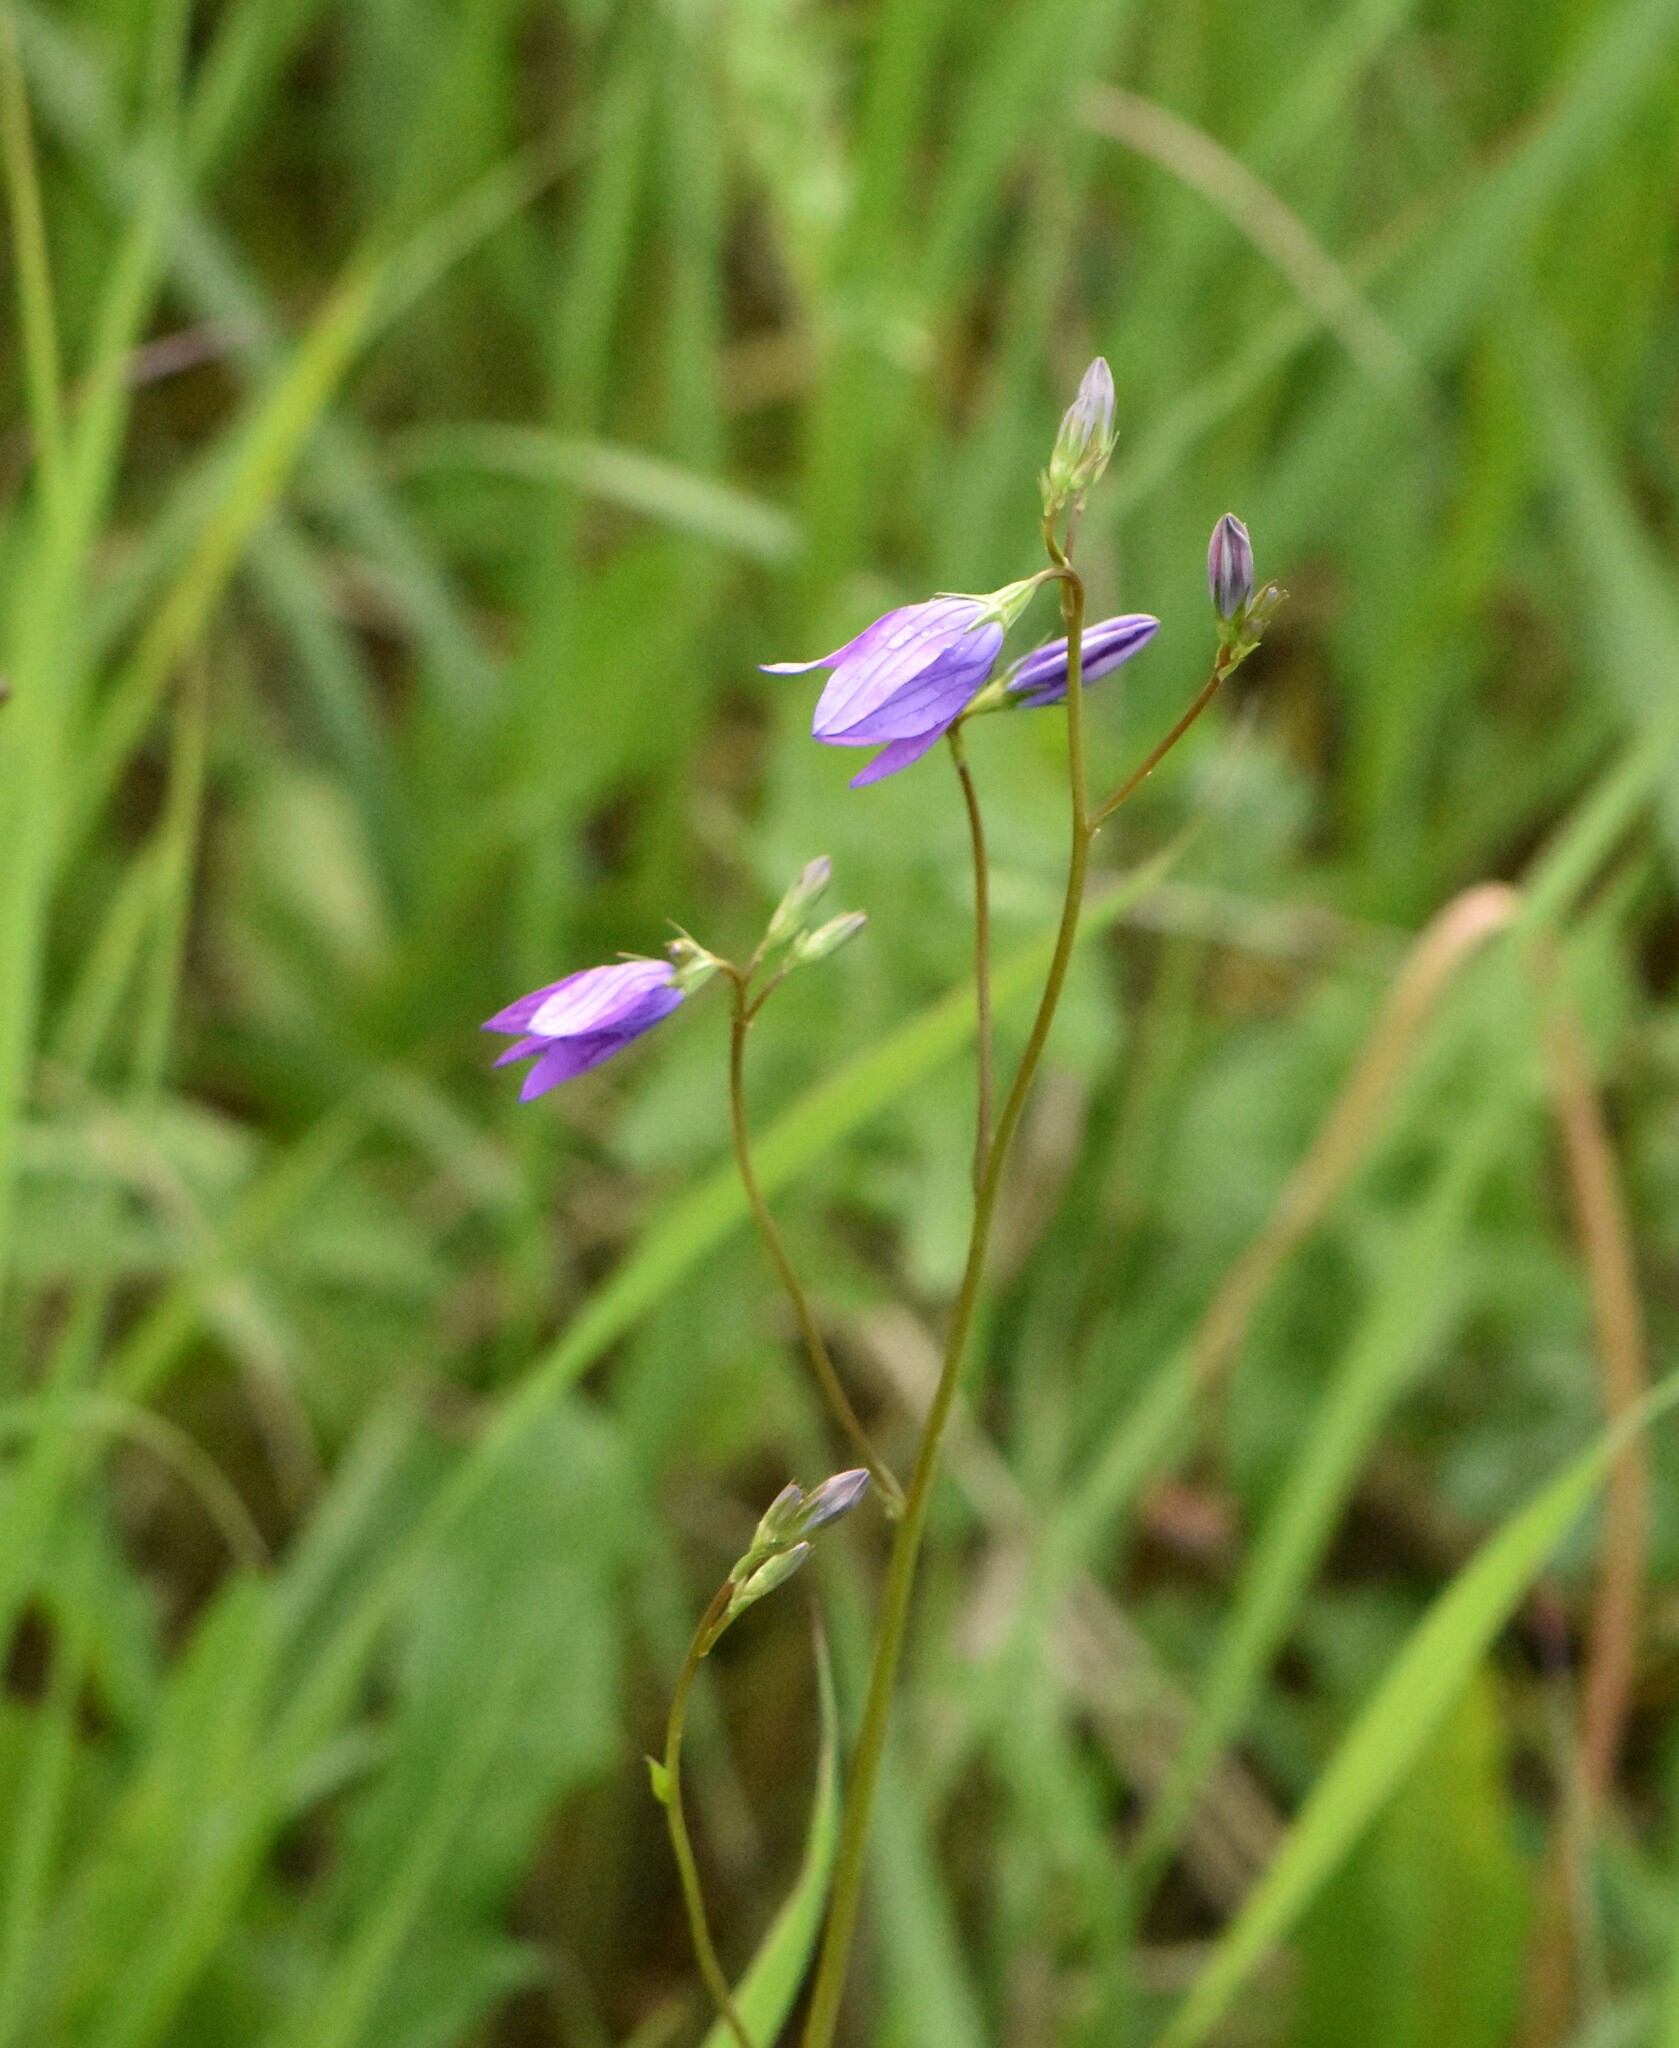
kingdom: Plantae
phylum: Tracheophyta
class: Magnoliopsida
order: Asterales
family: Campanulaceae
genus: Campanula
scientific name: Campanula patula
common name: Spreading bellflower
